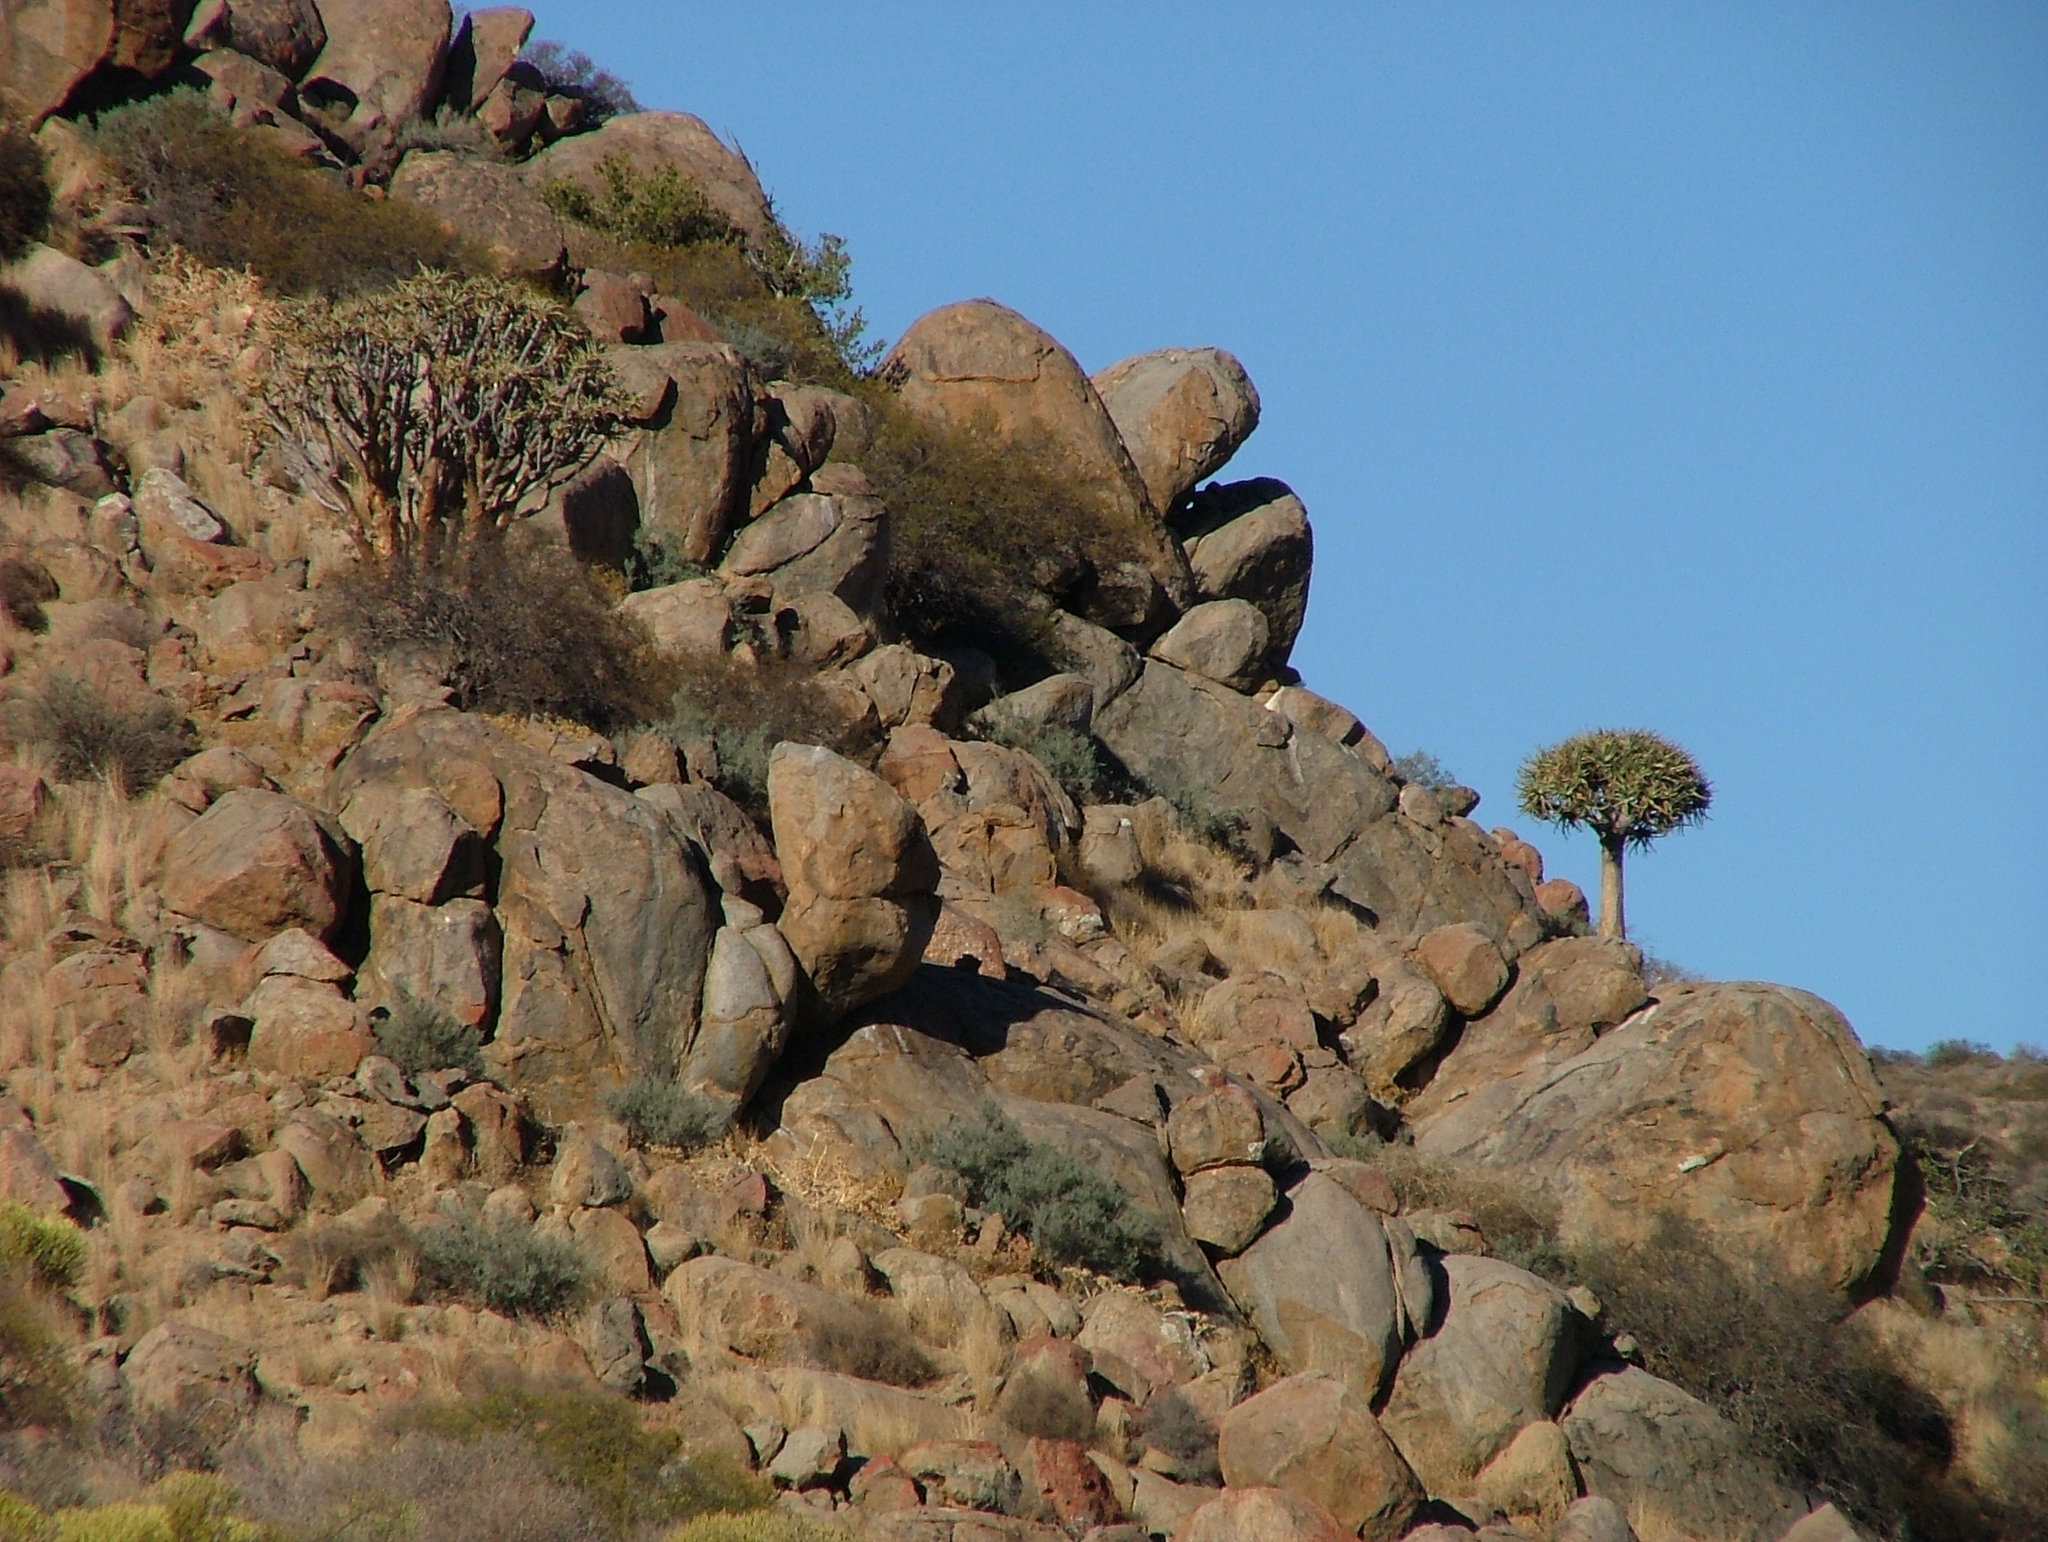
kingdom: Plantae
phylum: Tracheophyta
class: Liliopsida
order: Asparagales
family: Asphodelaceae
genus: Aloidendron
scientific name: Aloidendron dichotomum
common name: Quiver tree
